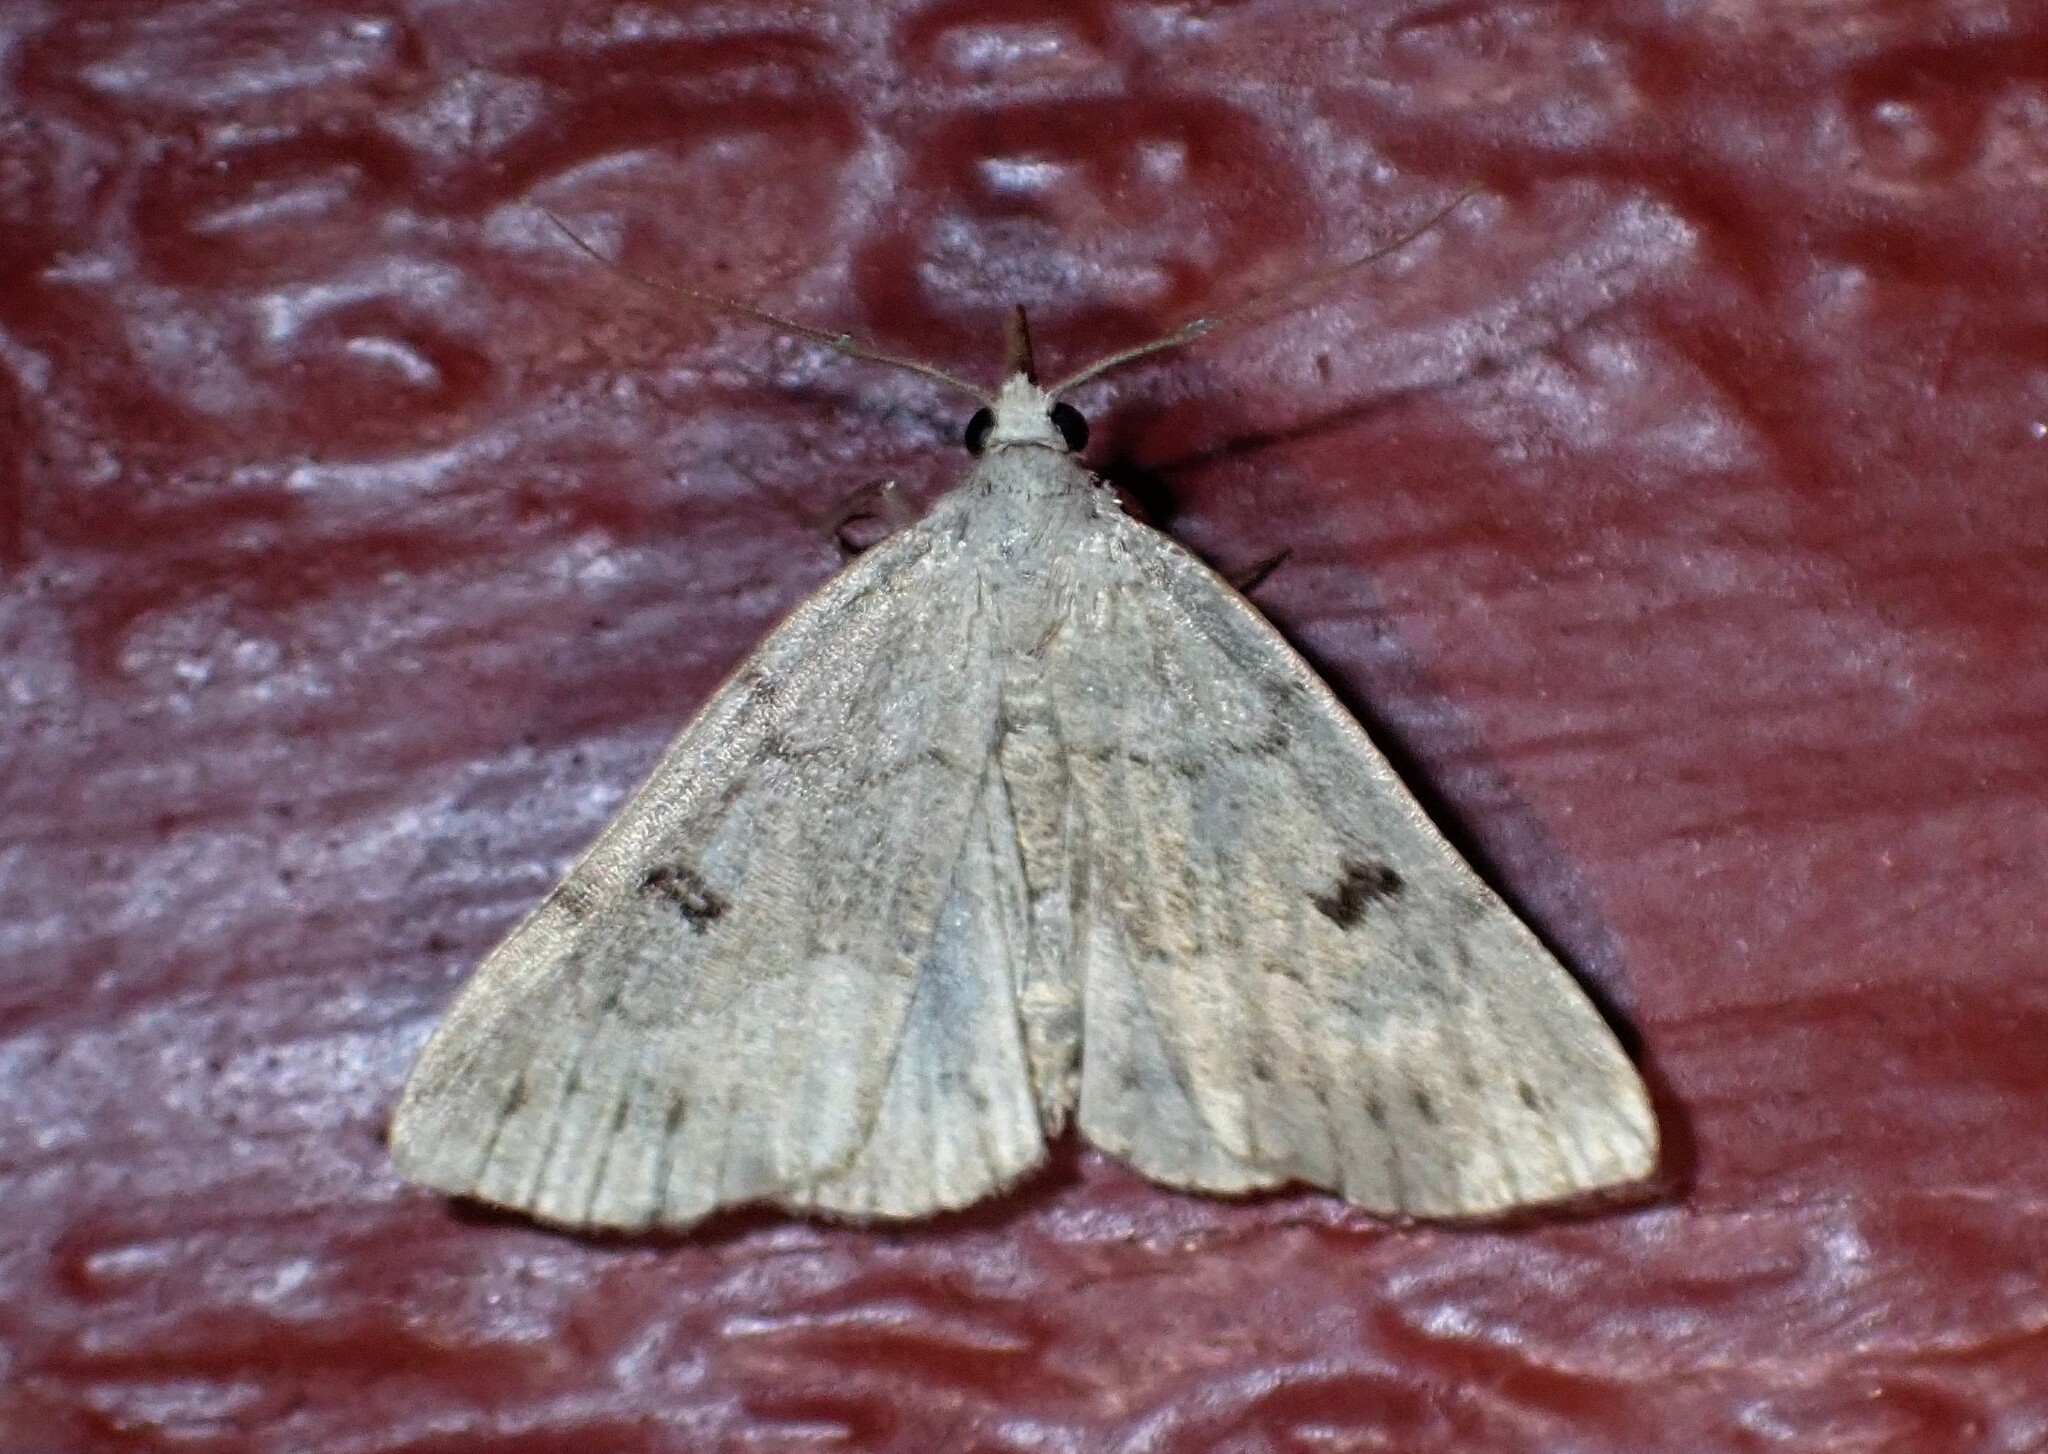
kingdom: Animalia
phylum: Arthropoda
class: Insecta
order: Lepidoptera
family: Erebidae
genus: Macrochilo
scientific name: Macrochilo morbidalis
